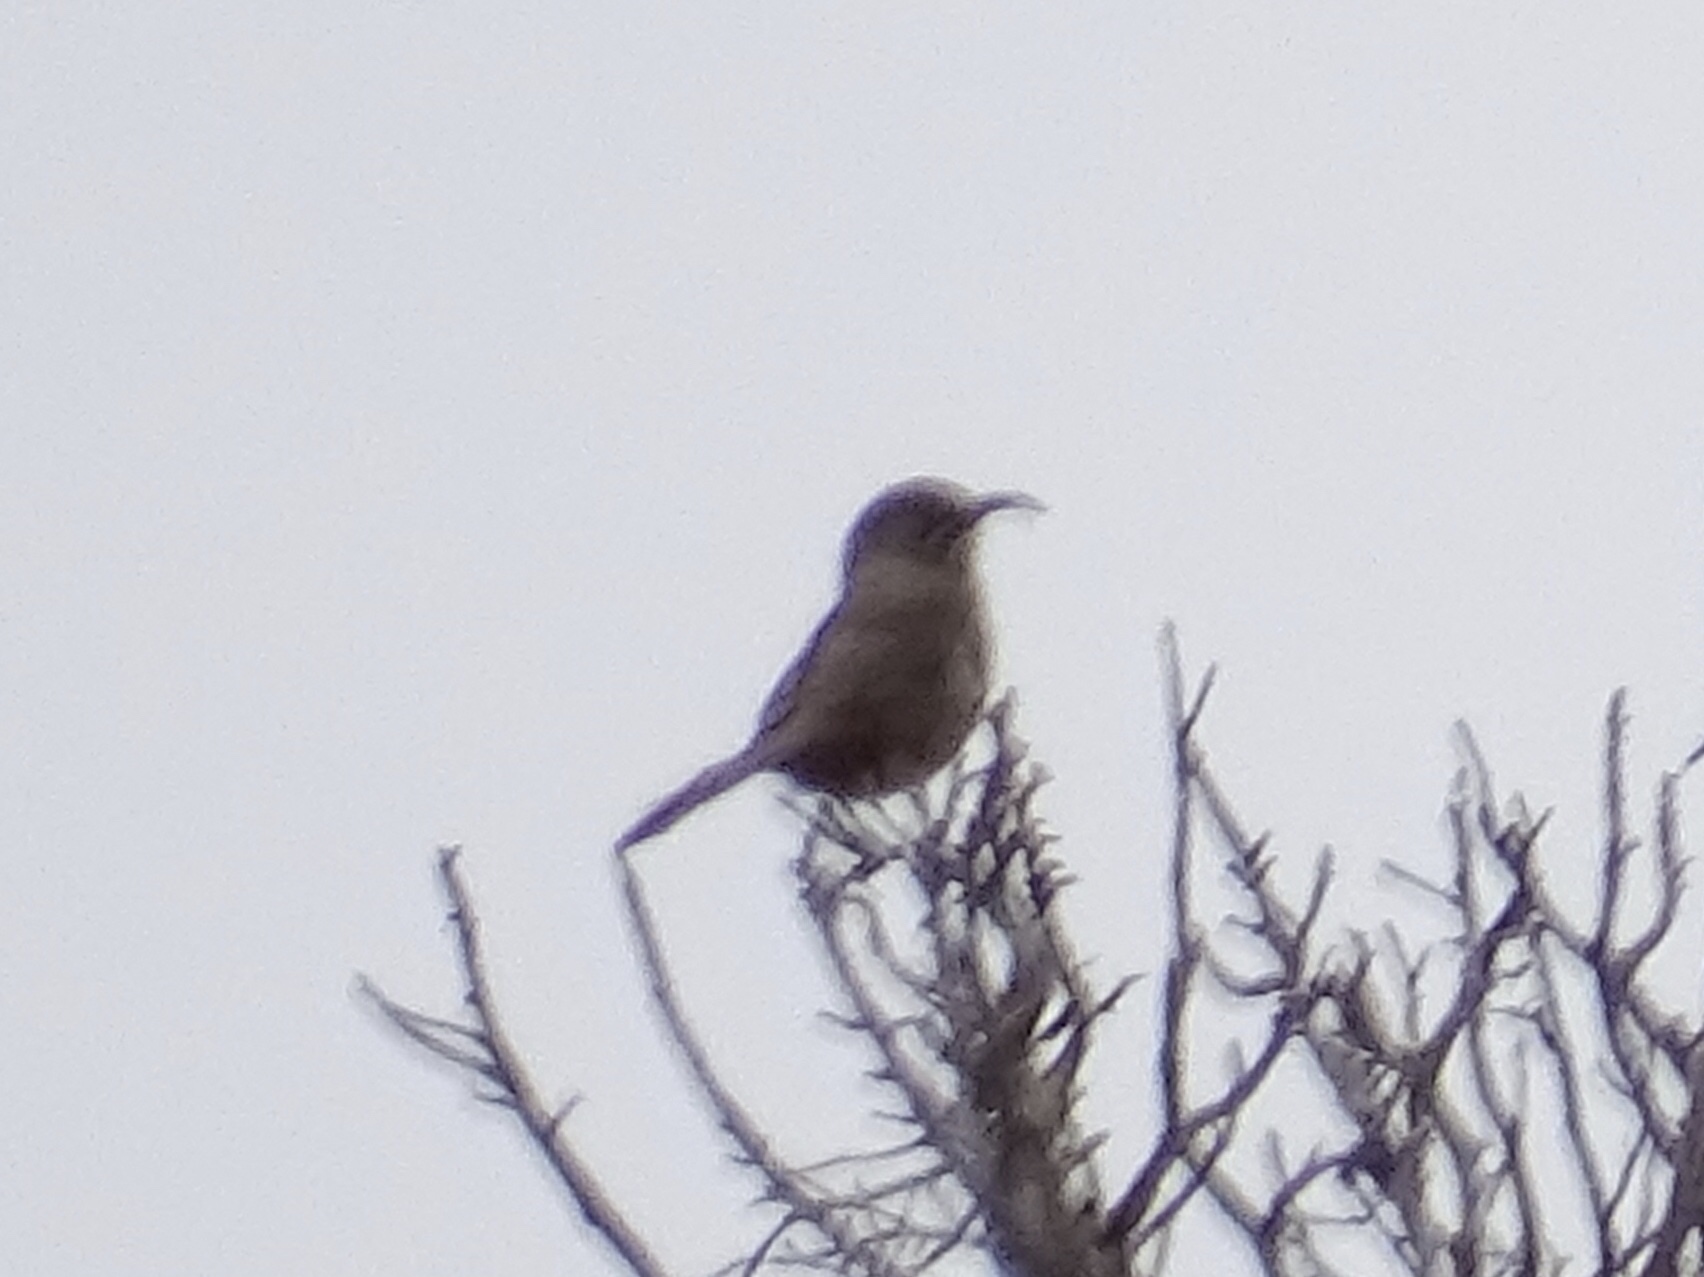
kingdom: Animalia
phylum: Chordata
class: Aves
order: Passeriformes
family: Mimidae
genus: Toxostoma
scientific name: Toxostoma crissale
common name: Crissal thrasher
